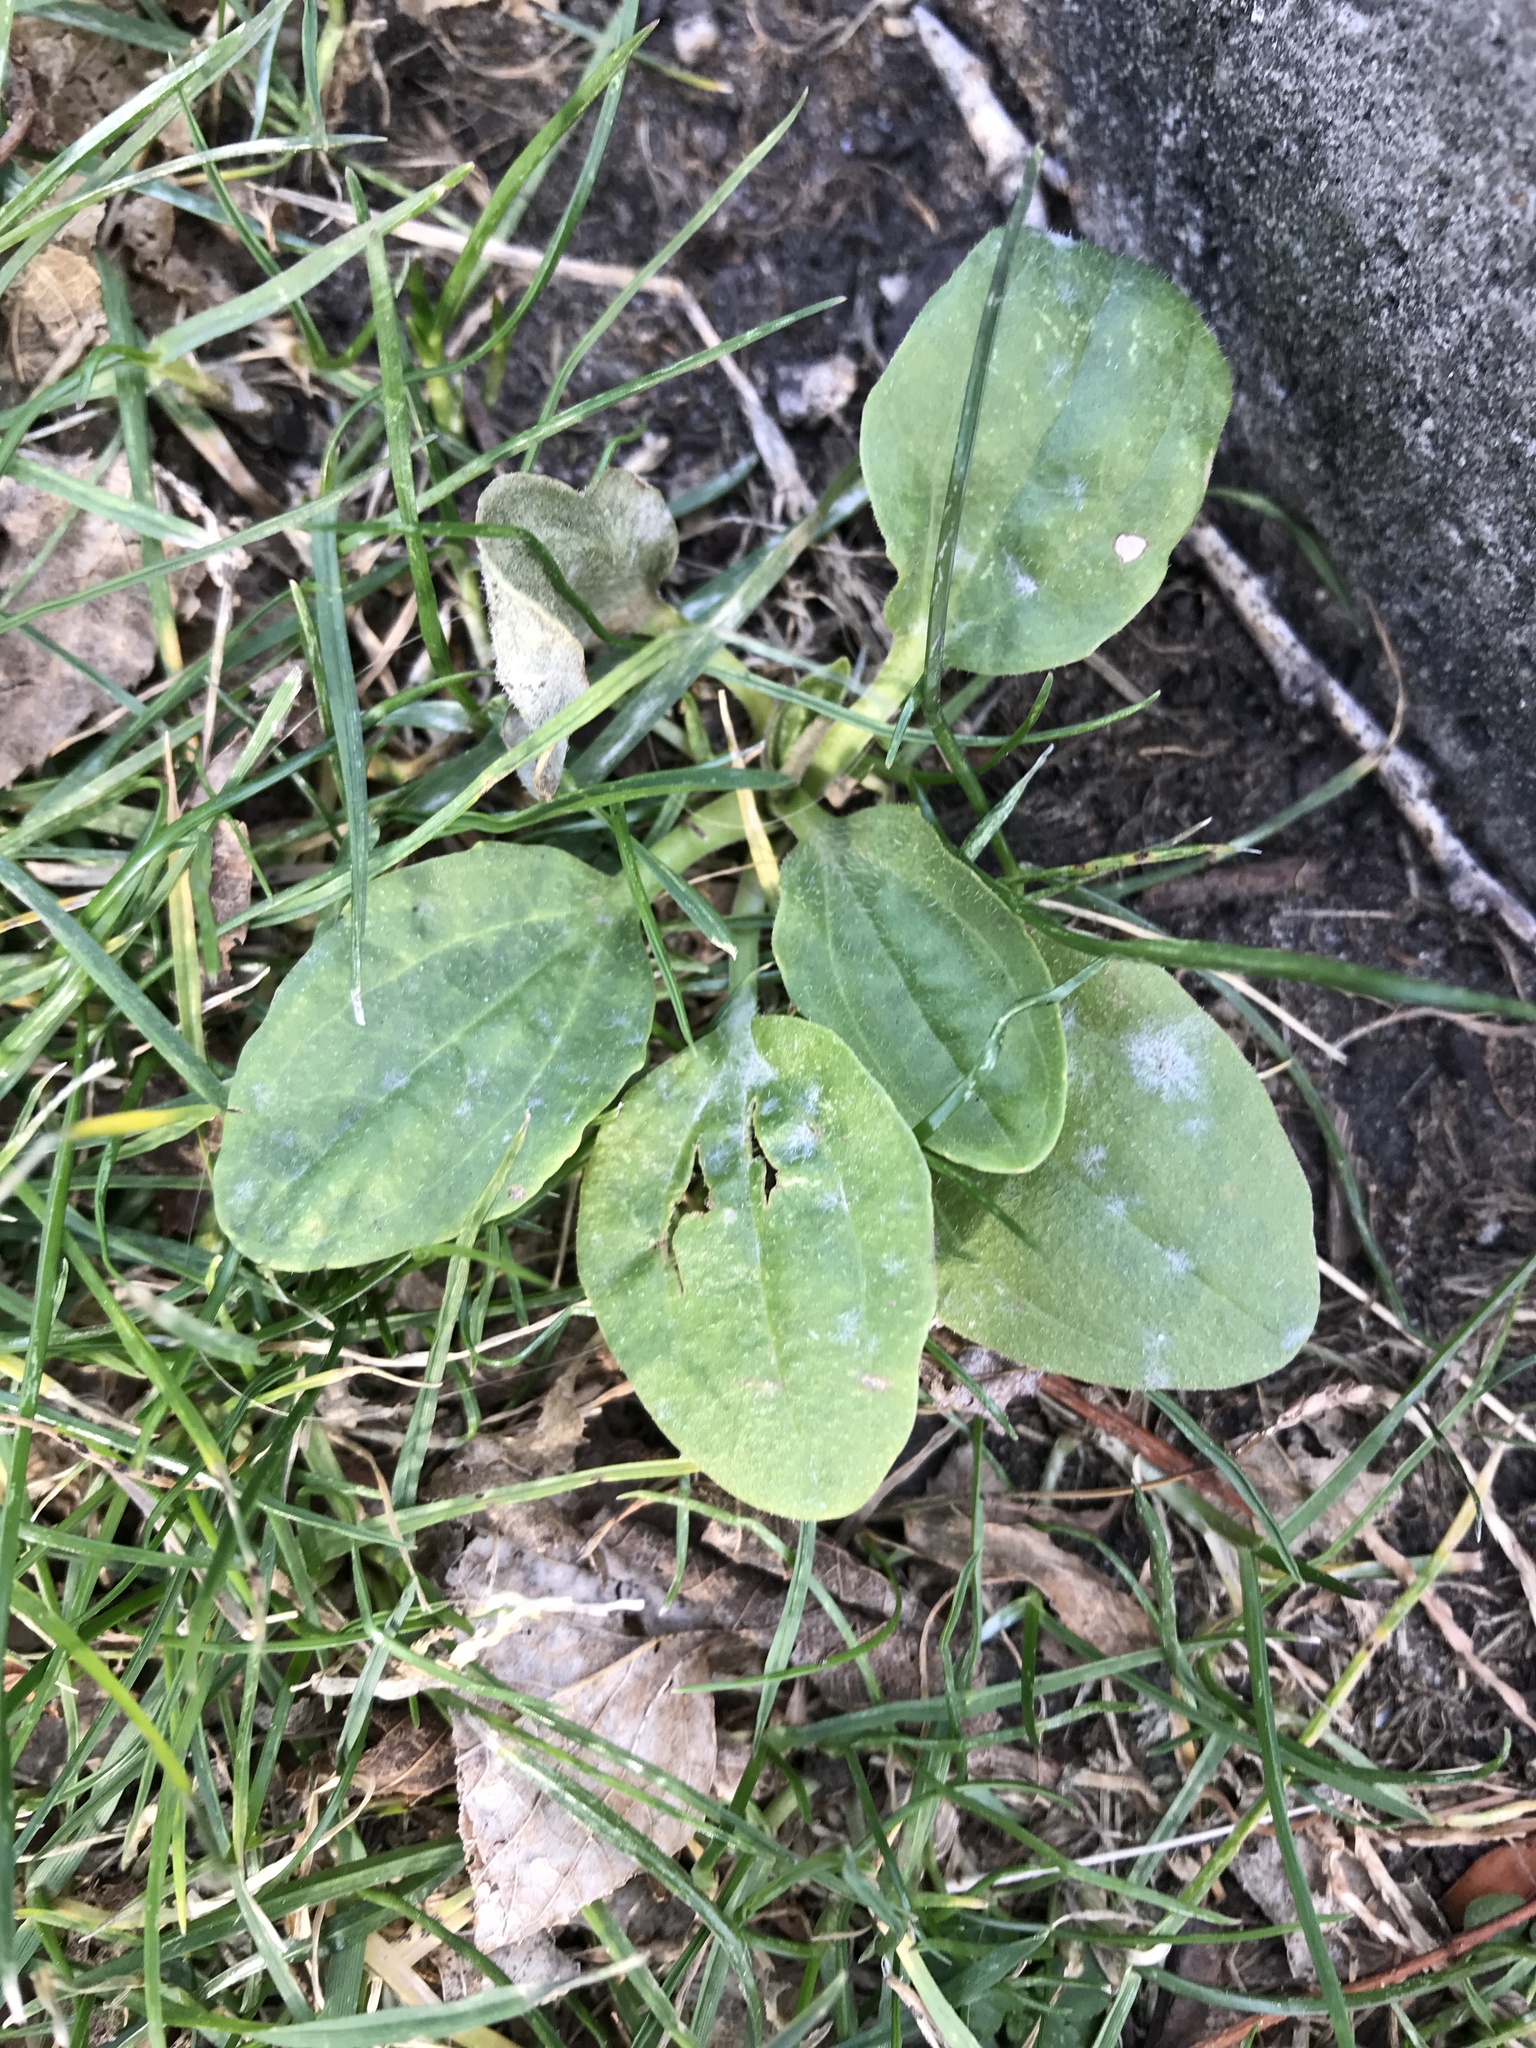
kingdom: Plantae
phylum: Tracheophyta
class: Magnoliopsida
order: Lamiales
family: Plantaginaceae
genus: Plantago
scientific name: Plantago major
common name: Common plantain
